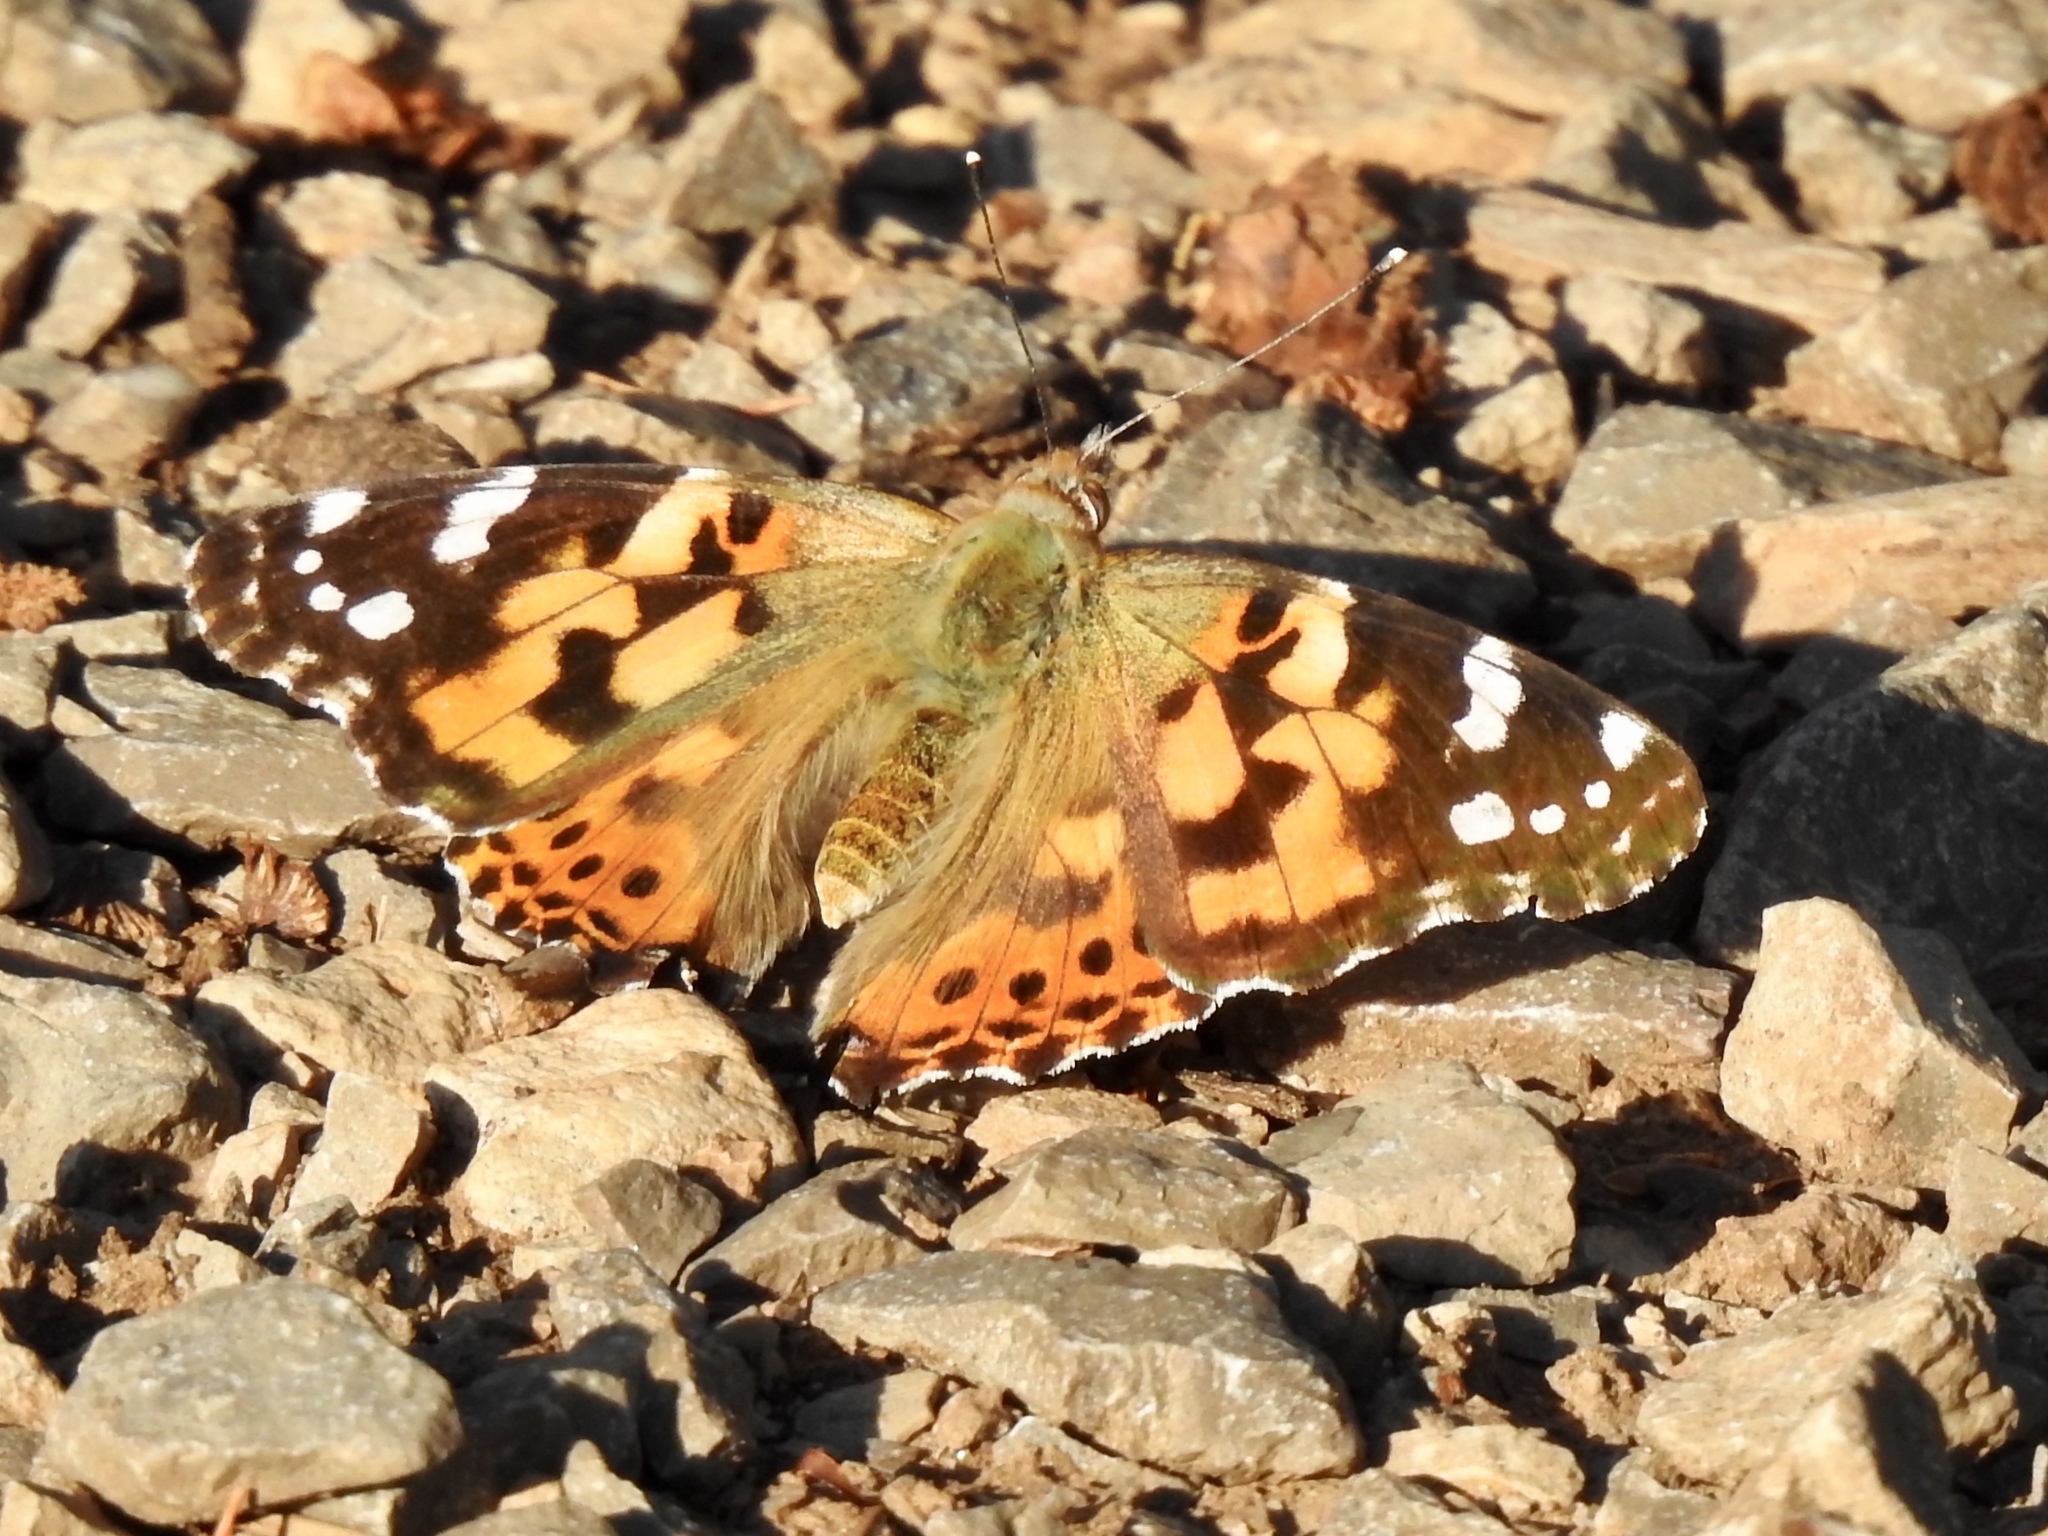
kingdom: Animalia
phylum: Arthropoda
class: Insecta
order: Lepidoptera
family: Nymphalidae
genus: Vanessa
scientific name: Vanessa cardui
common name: Painted lady
